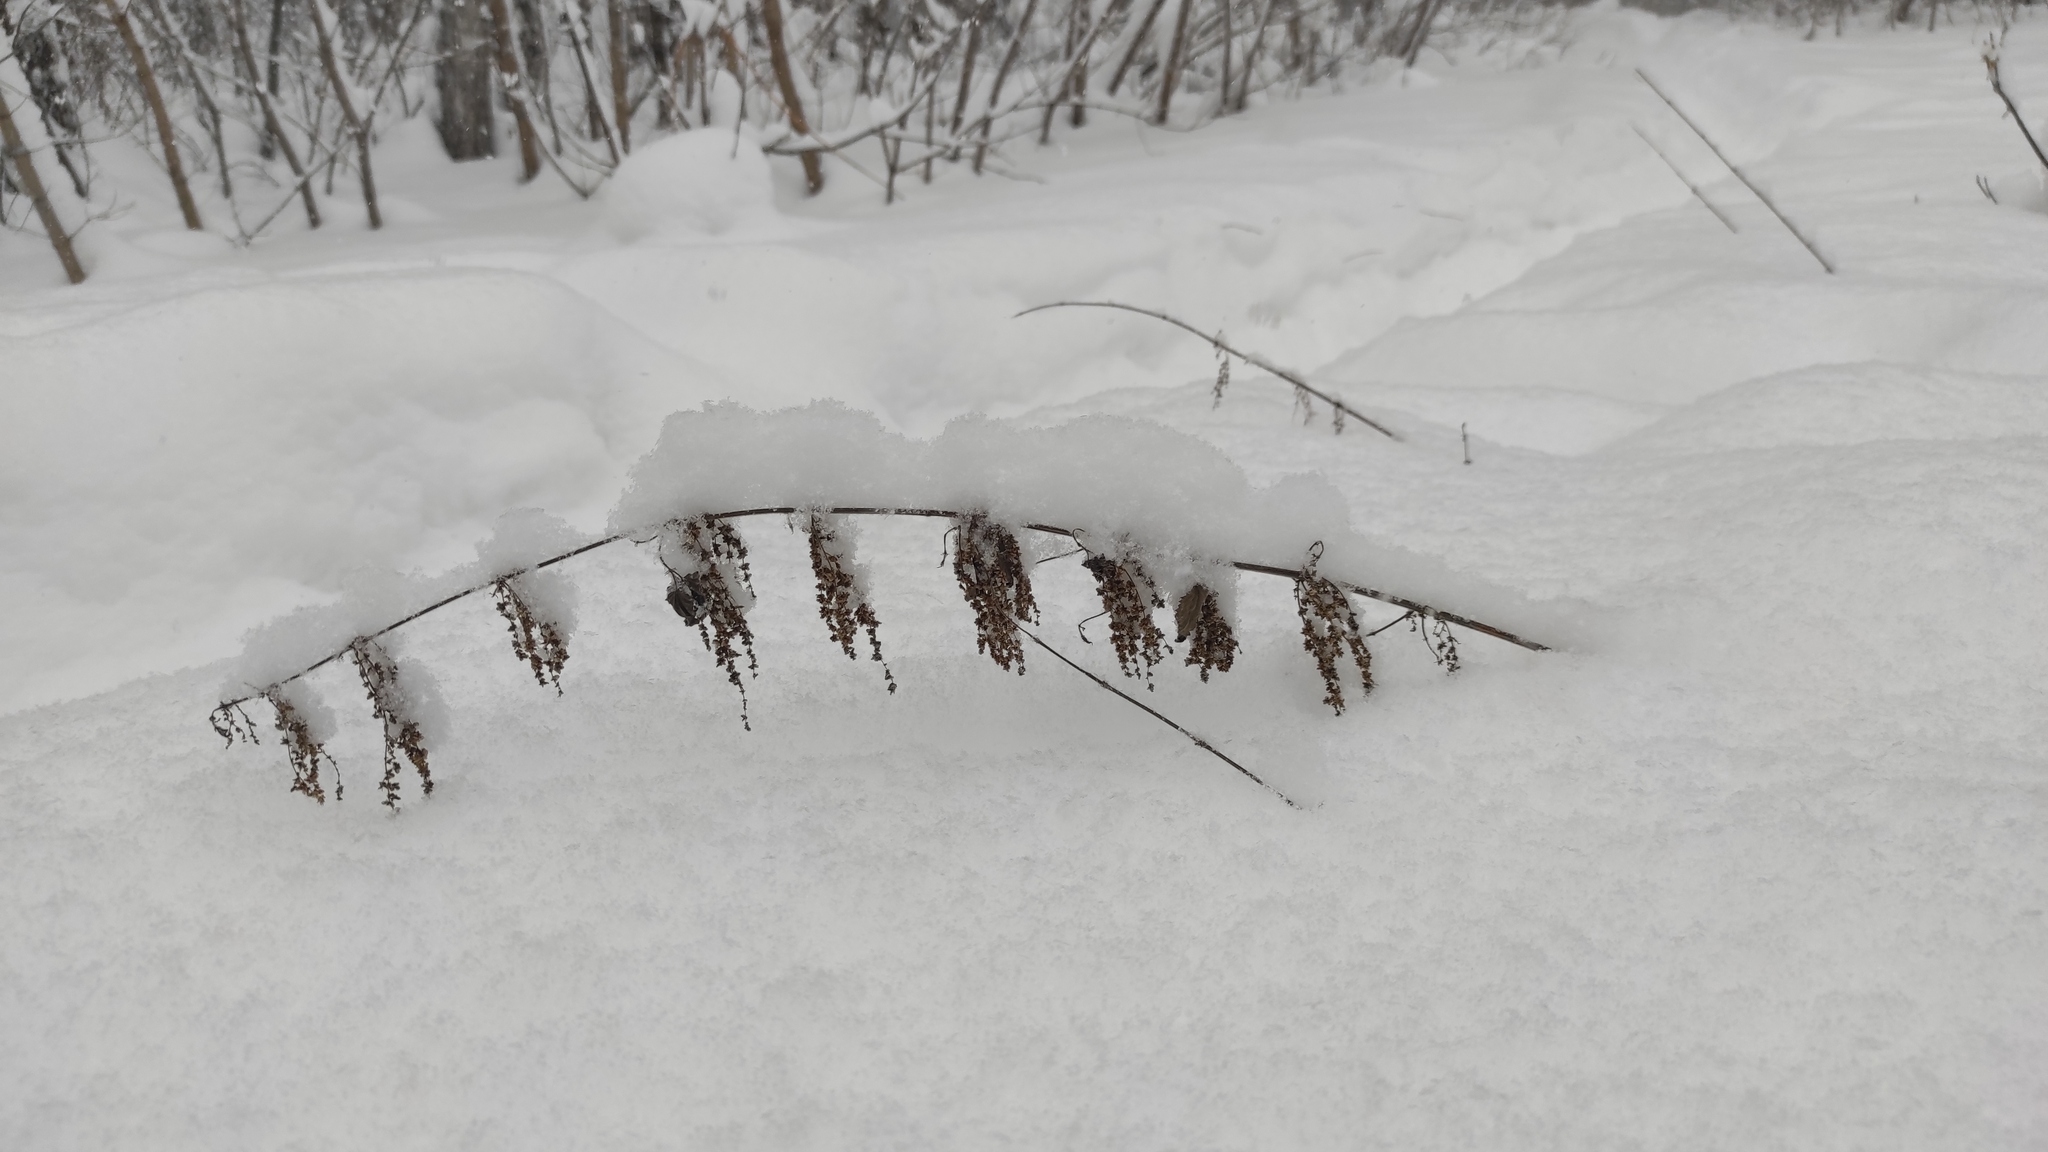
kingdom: Plantae
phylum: Tracheophyta
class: Magnoliopsida
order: Rosales
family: Urticaceae
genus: Urtica
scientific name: Urtica dioica
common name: Common nettle
